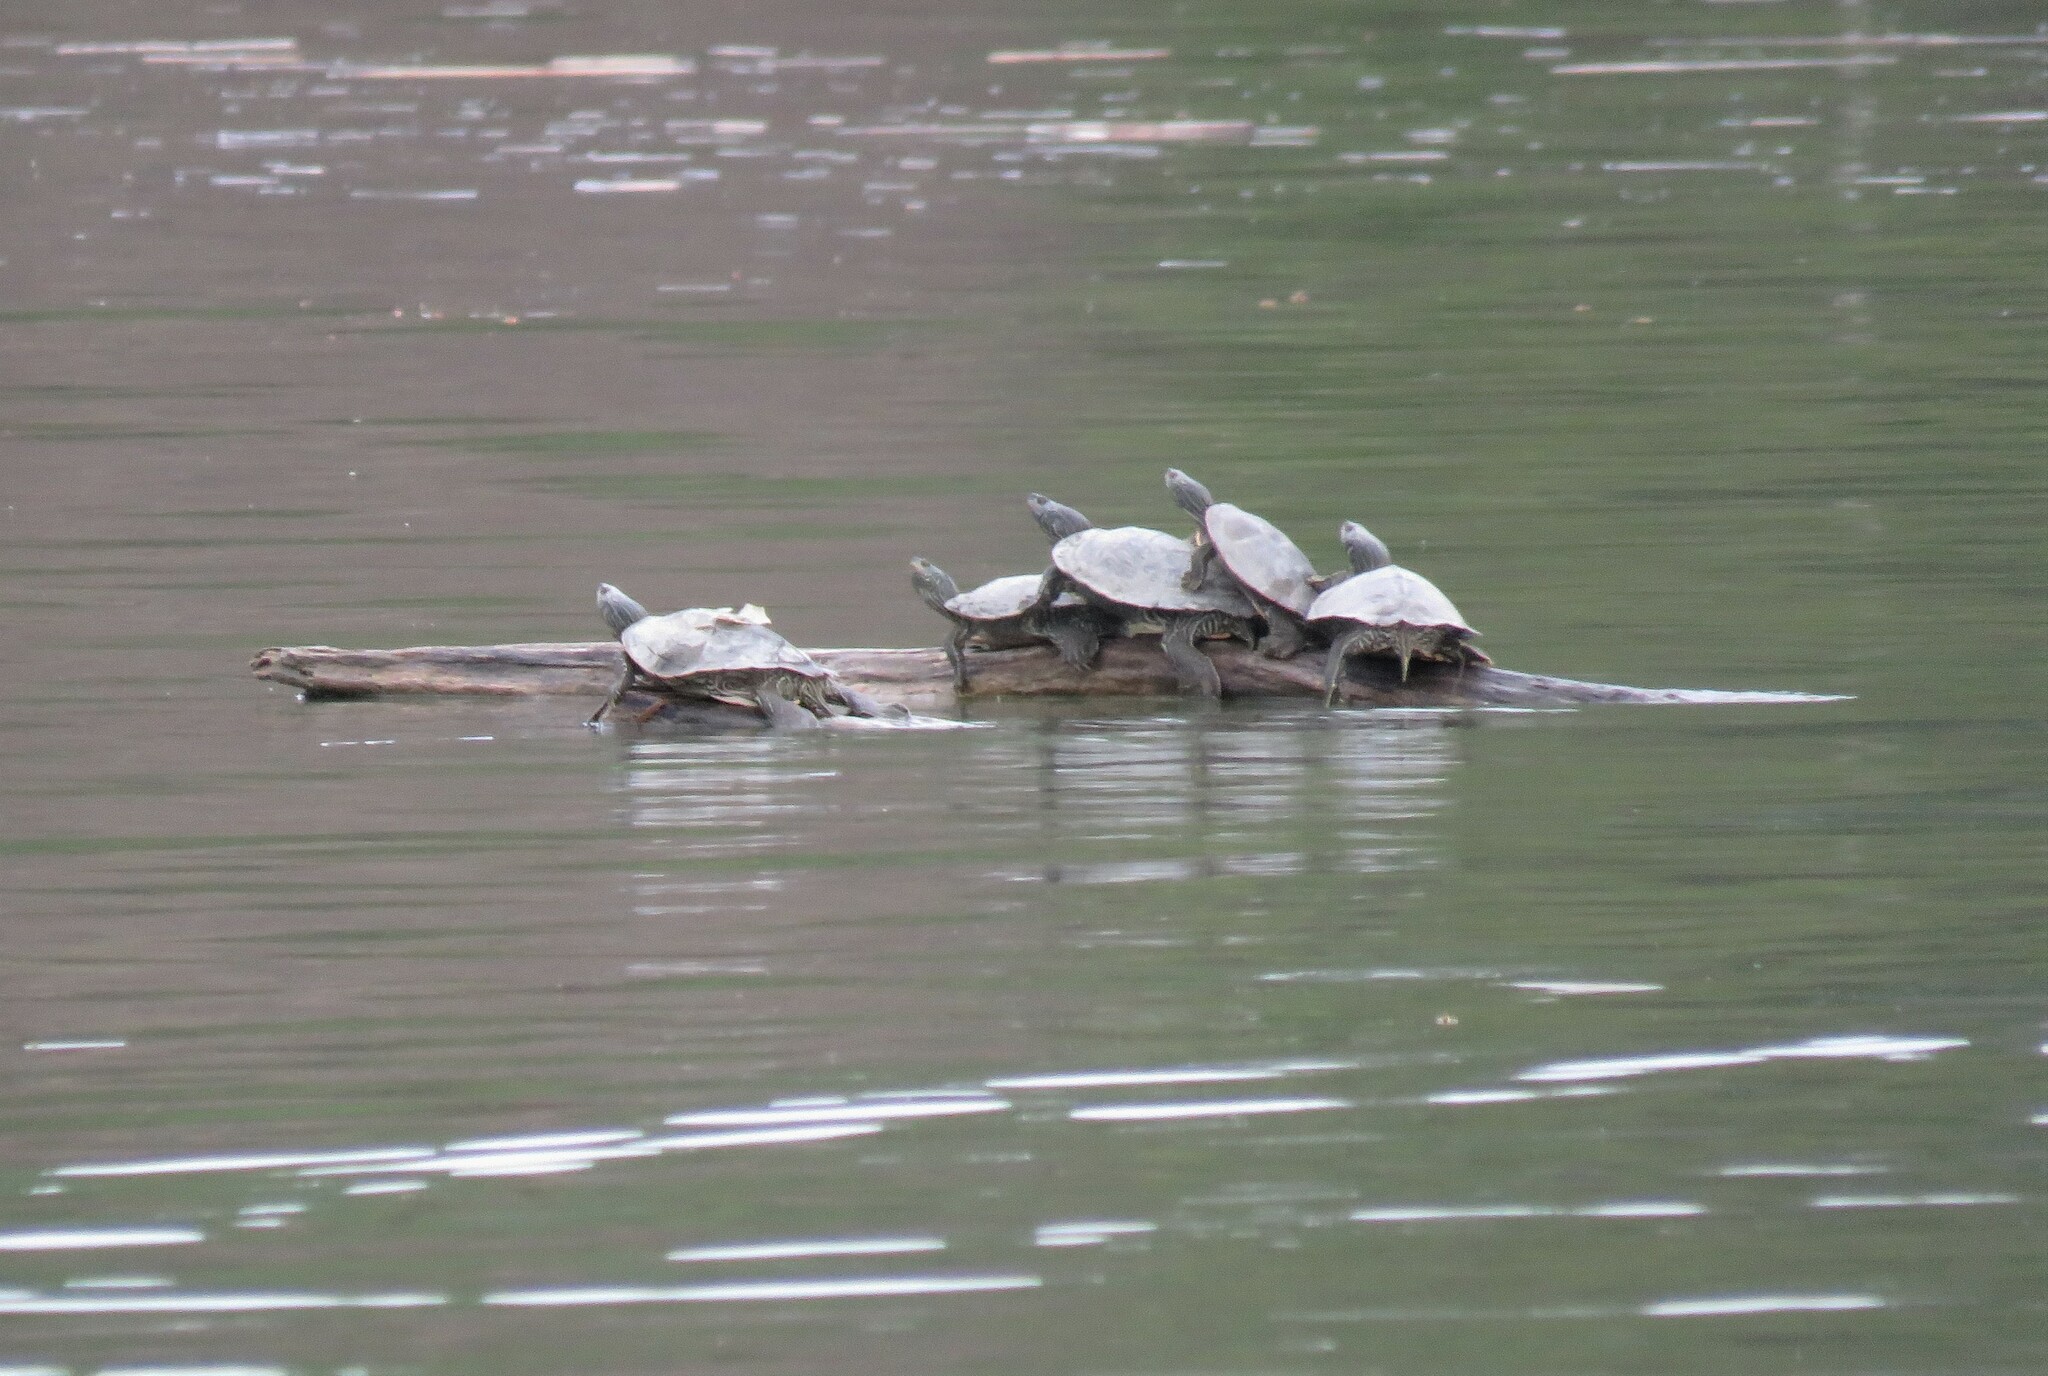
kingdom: Animalia
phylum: Chordata
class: Testudines
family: Emydidae
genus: Graptemys
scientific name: Graptemys geographica
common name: Common map turtle
